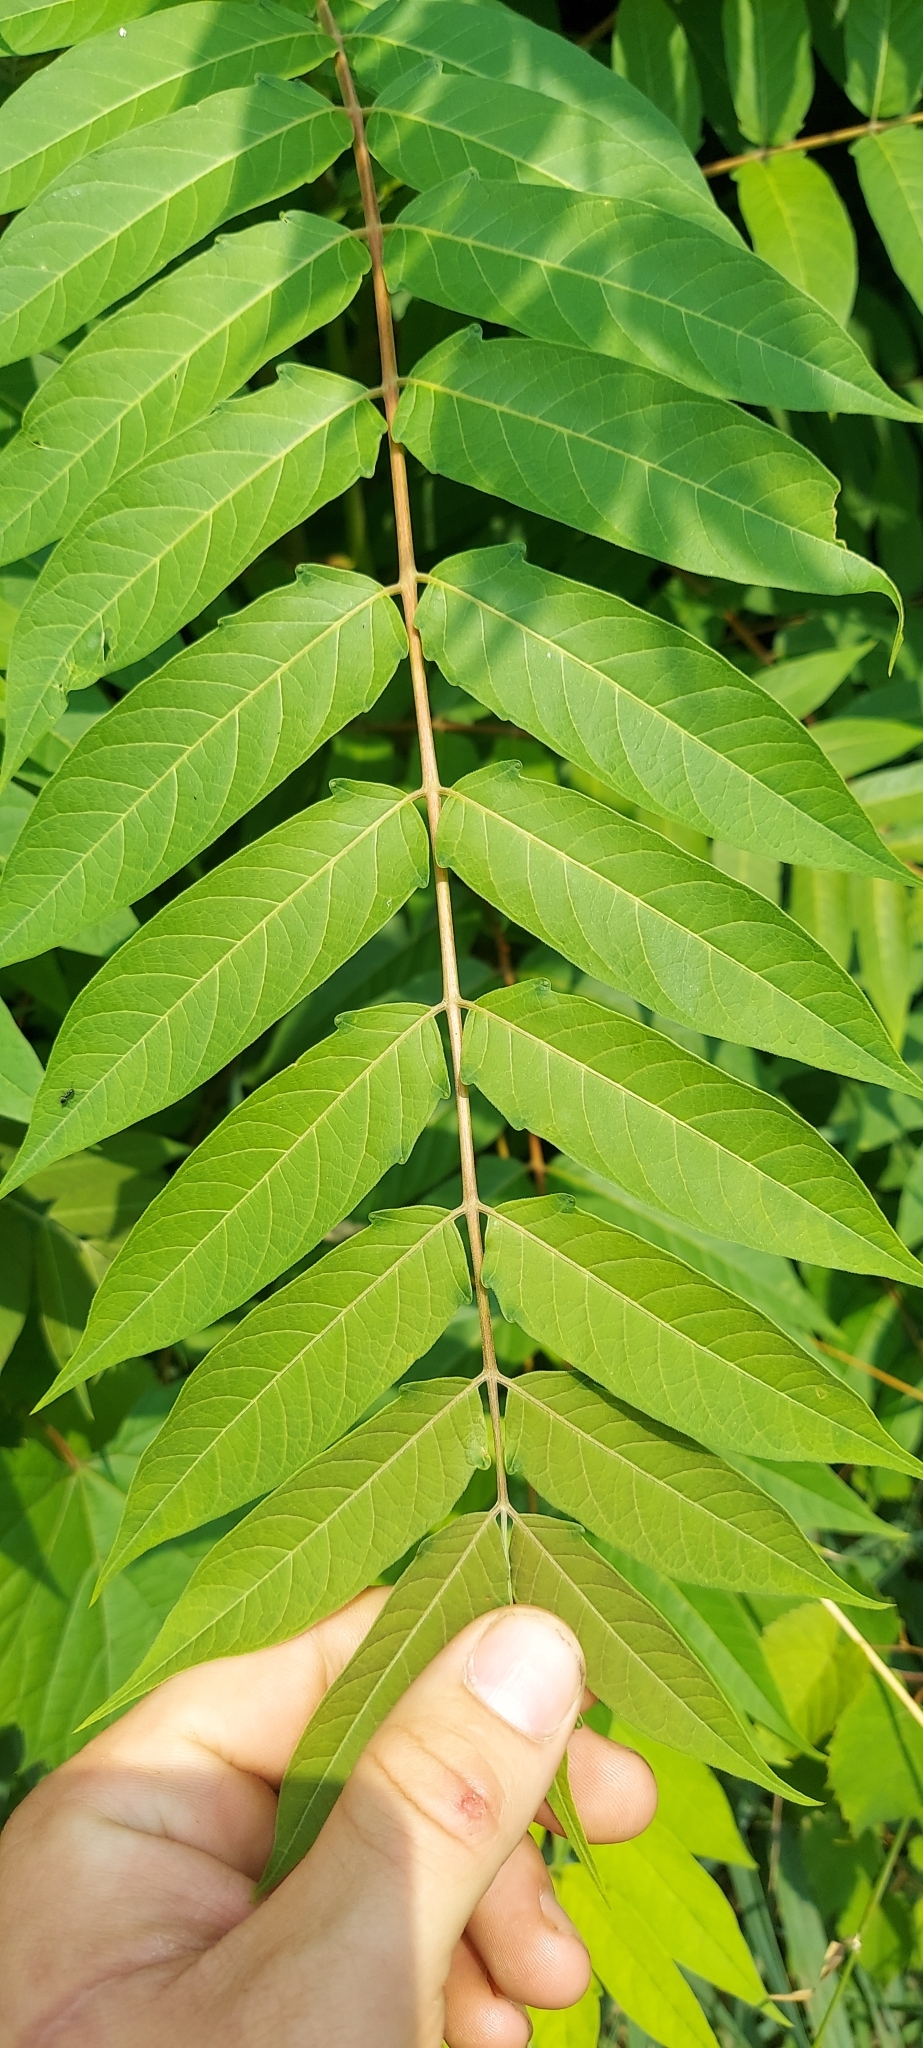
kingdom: Plantae
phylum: Tracheophyta
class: Magnoliopsida
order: Sapindales
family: Simaroubaceae
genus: Ailanthus
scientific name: Ailanthus altissima
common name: Tree-of-heaven
